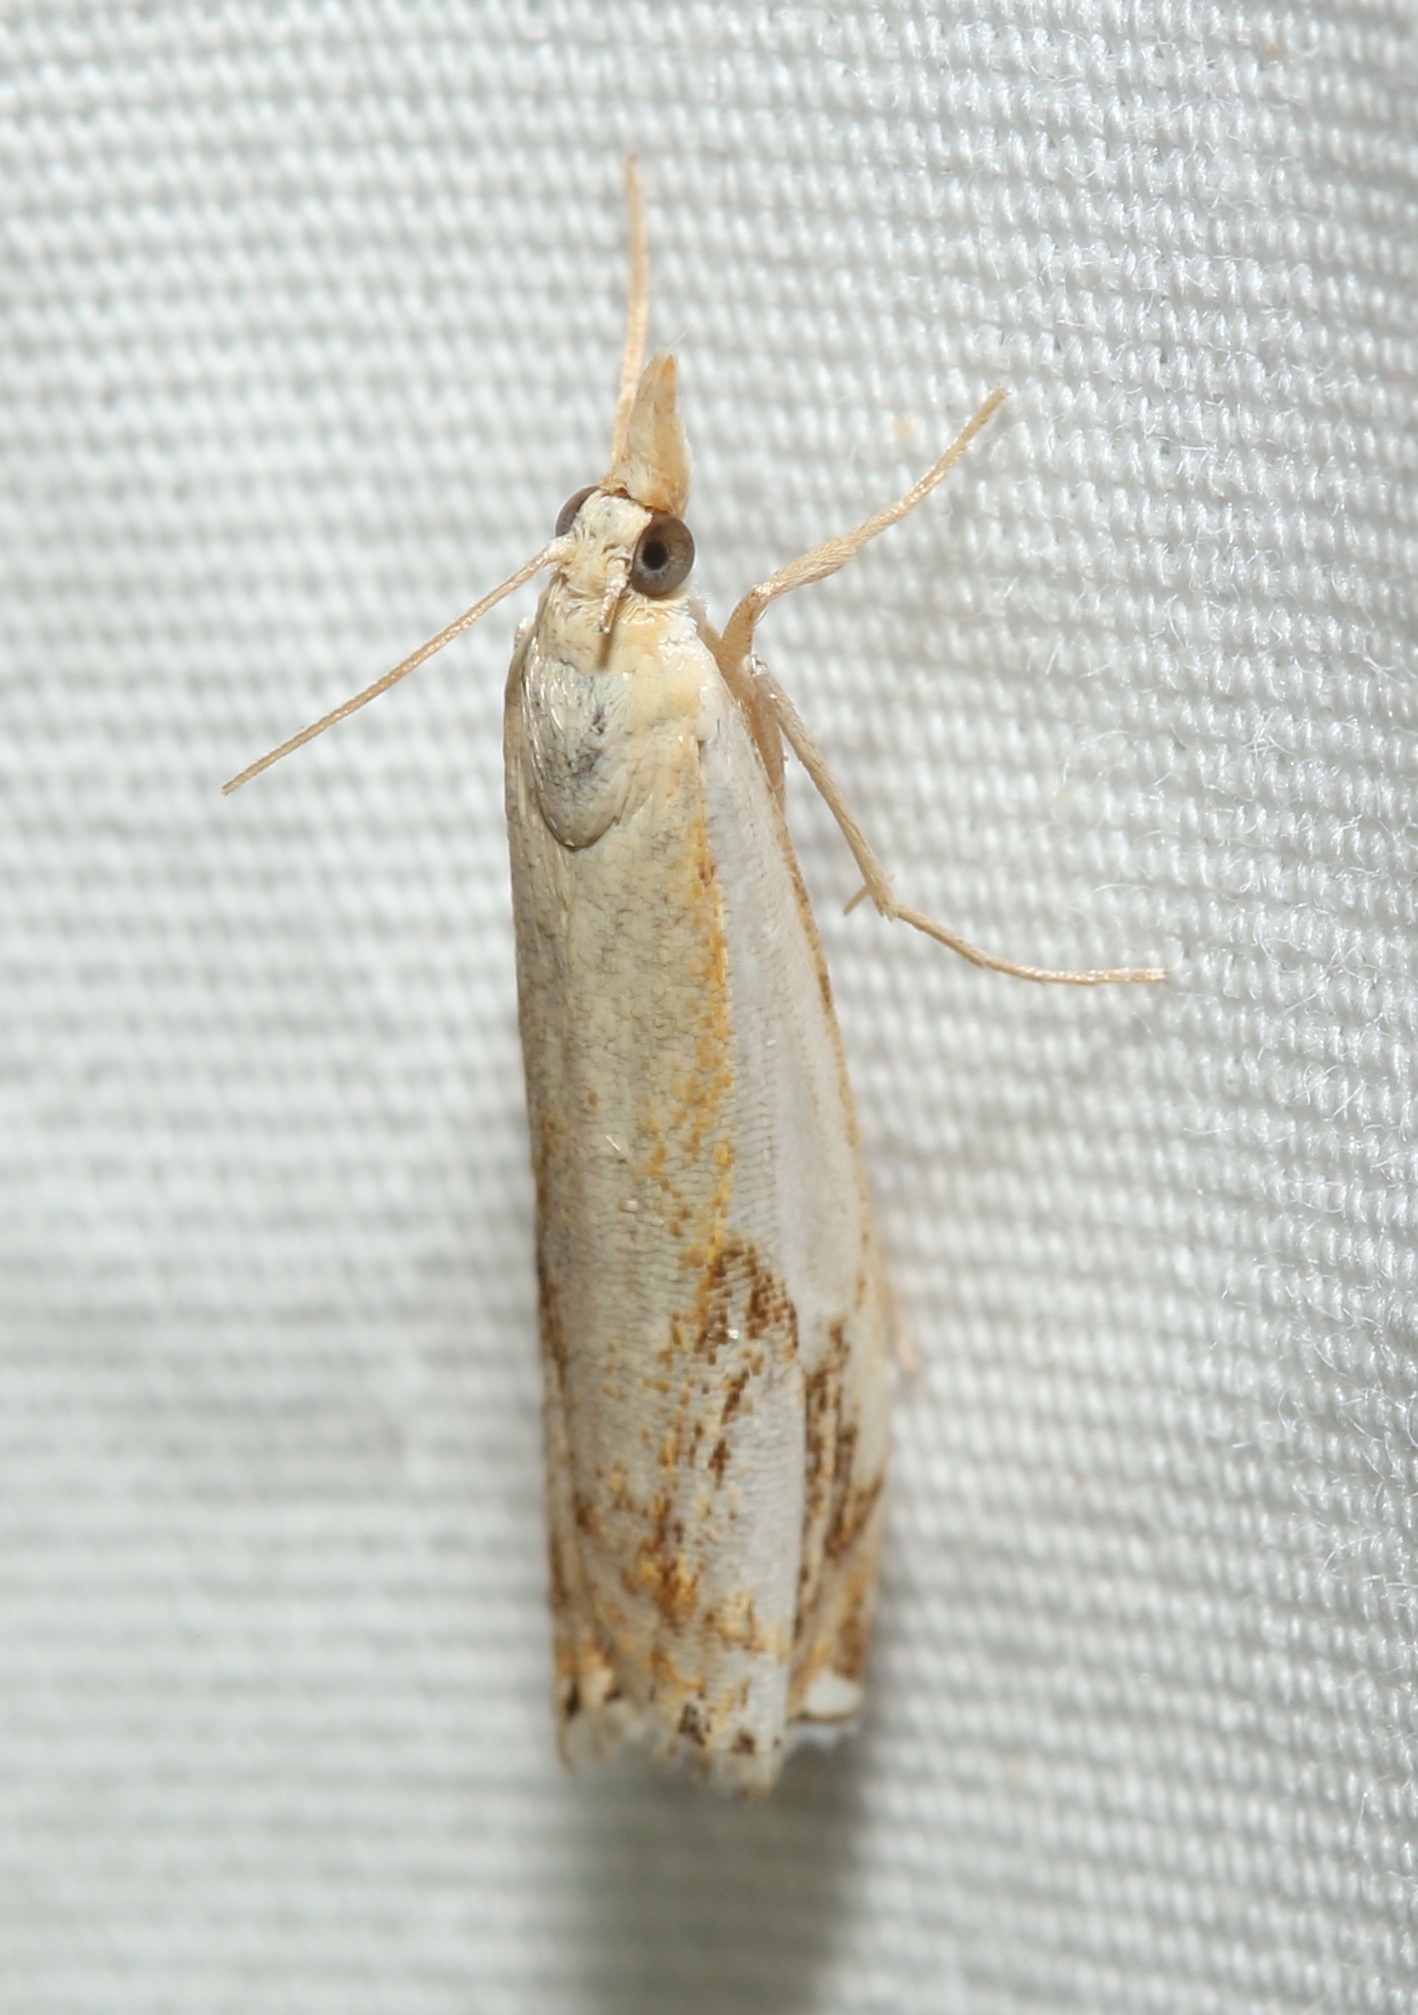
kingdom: Animalia
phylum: Arthropoda
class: Insecta
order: Lepidoptera
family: Crambidae
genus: Crambus
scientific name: Crambus agitatellus
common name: Double-banded grass-veneer
